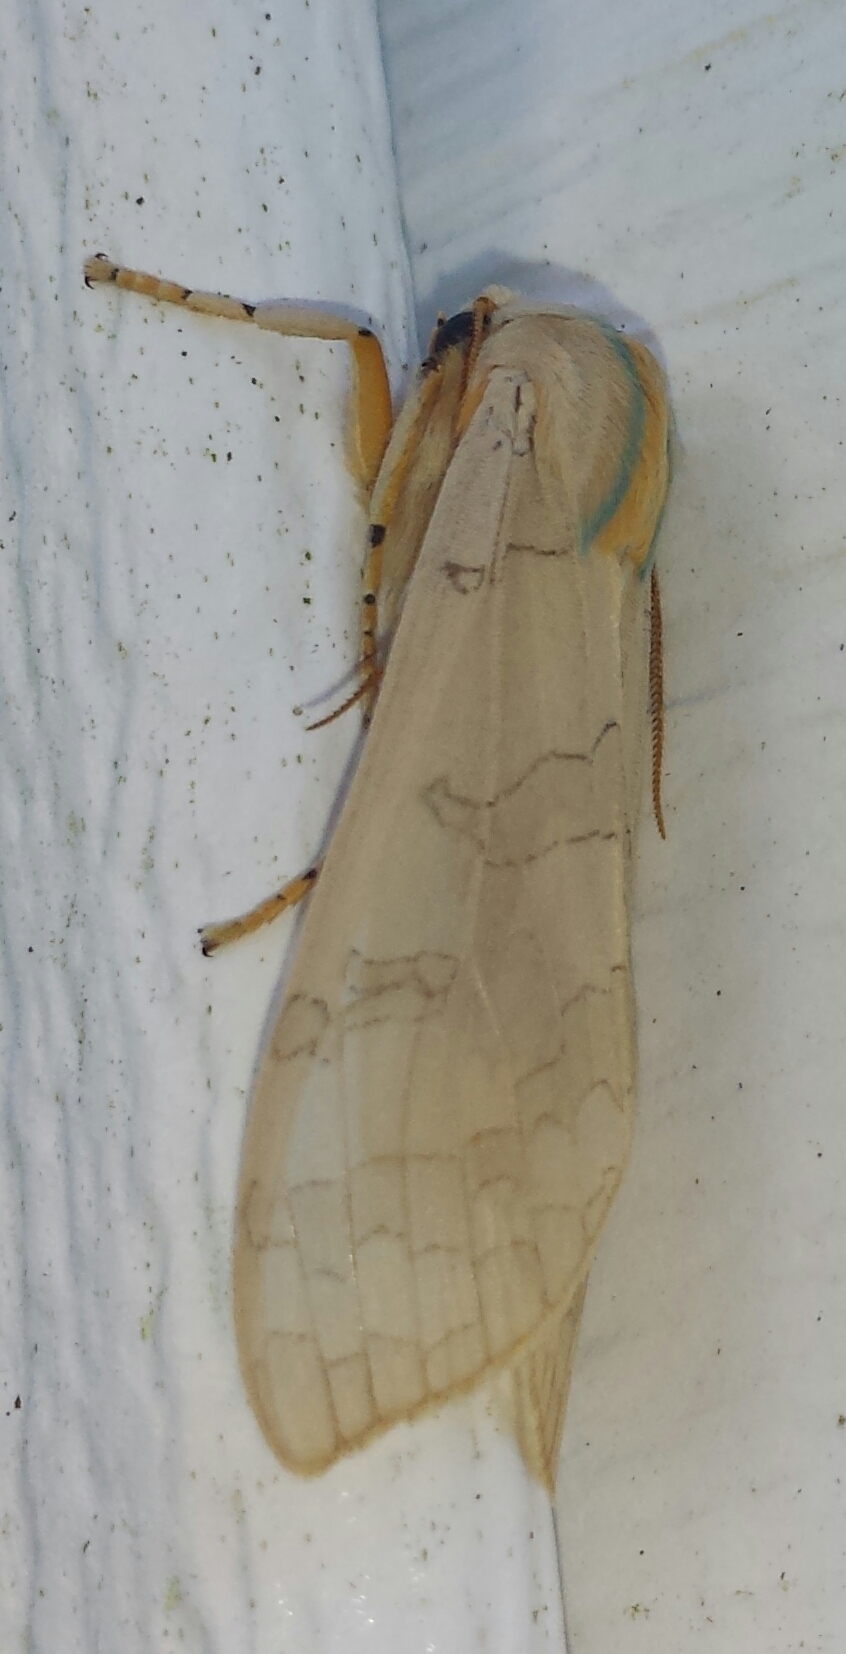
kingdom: Animalia
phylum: Arthropoda
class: Insecta
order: Lepidoptera
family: Erebidae
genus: Halysidota
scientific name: Halysidota tessellaris
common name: Banded tussock moth
